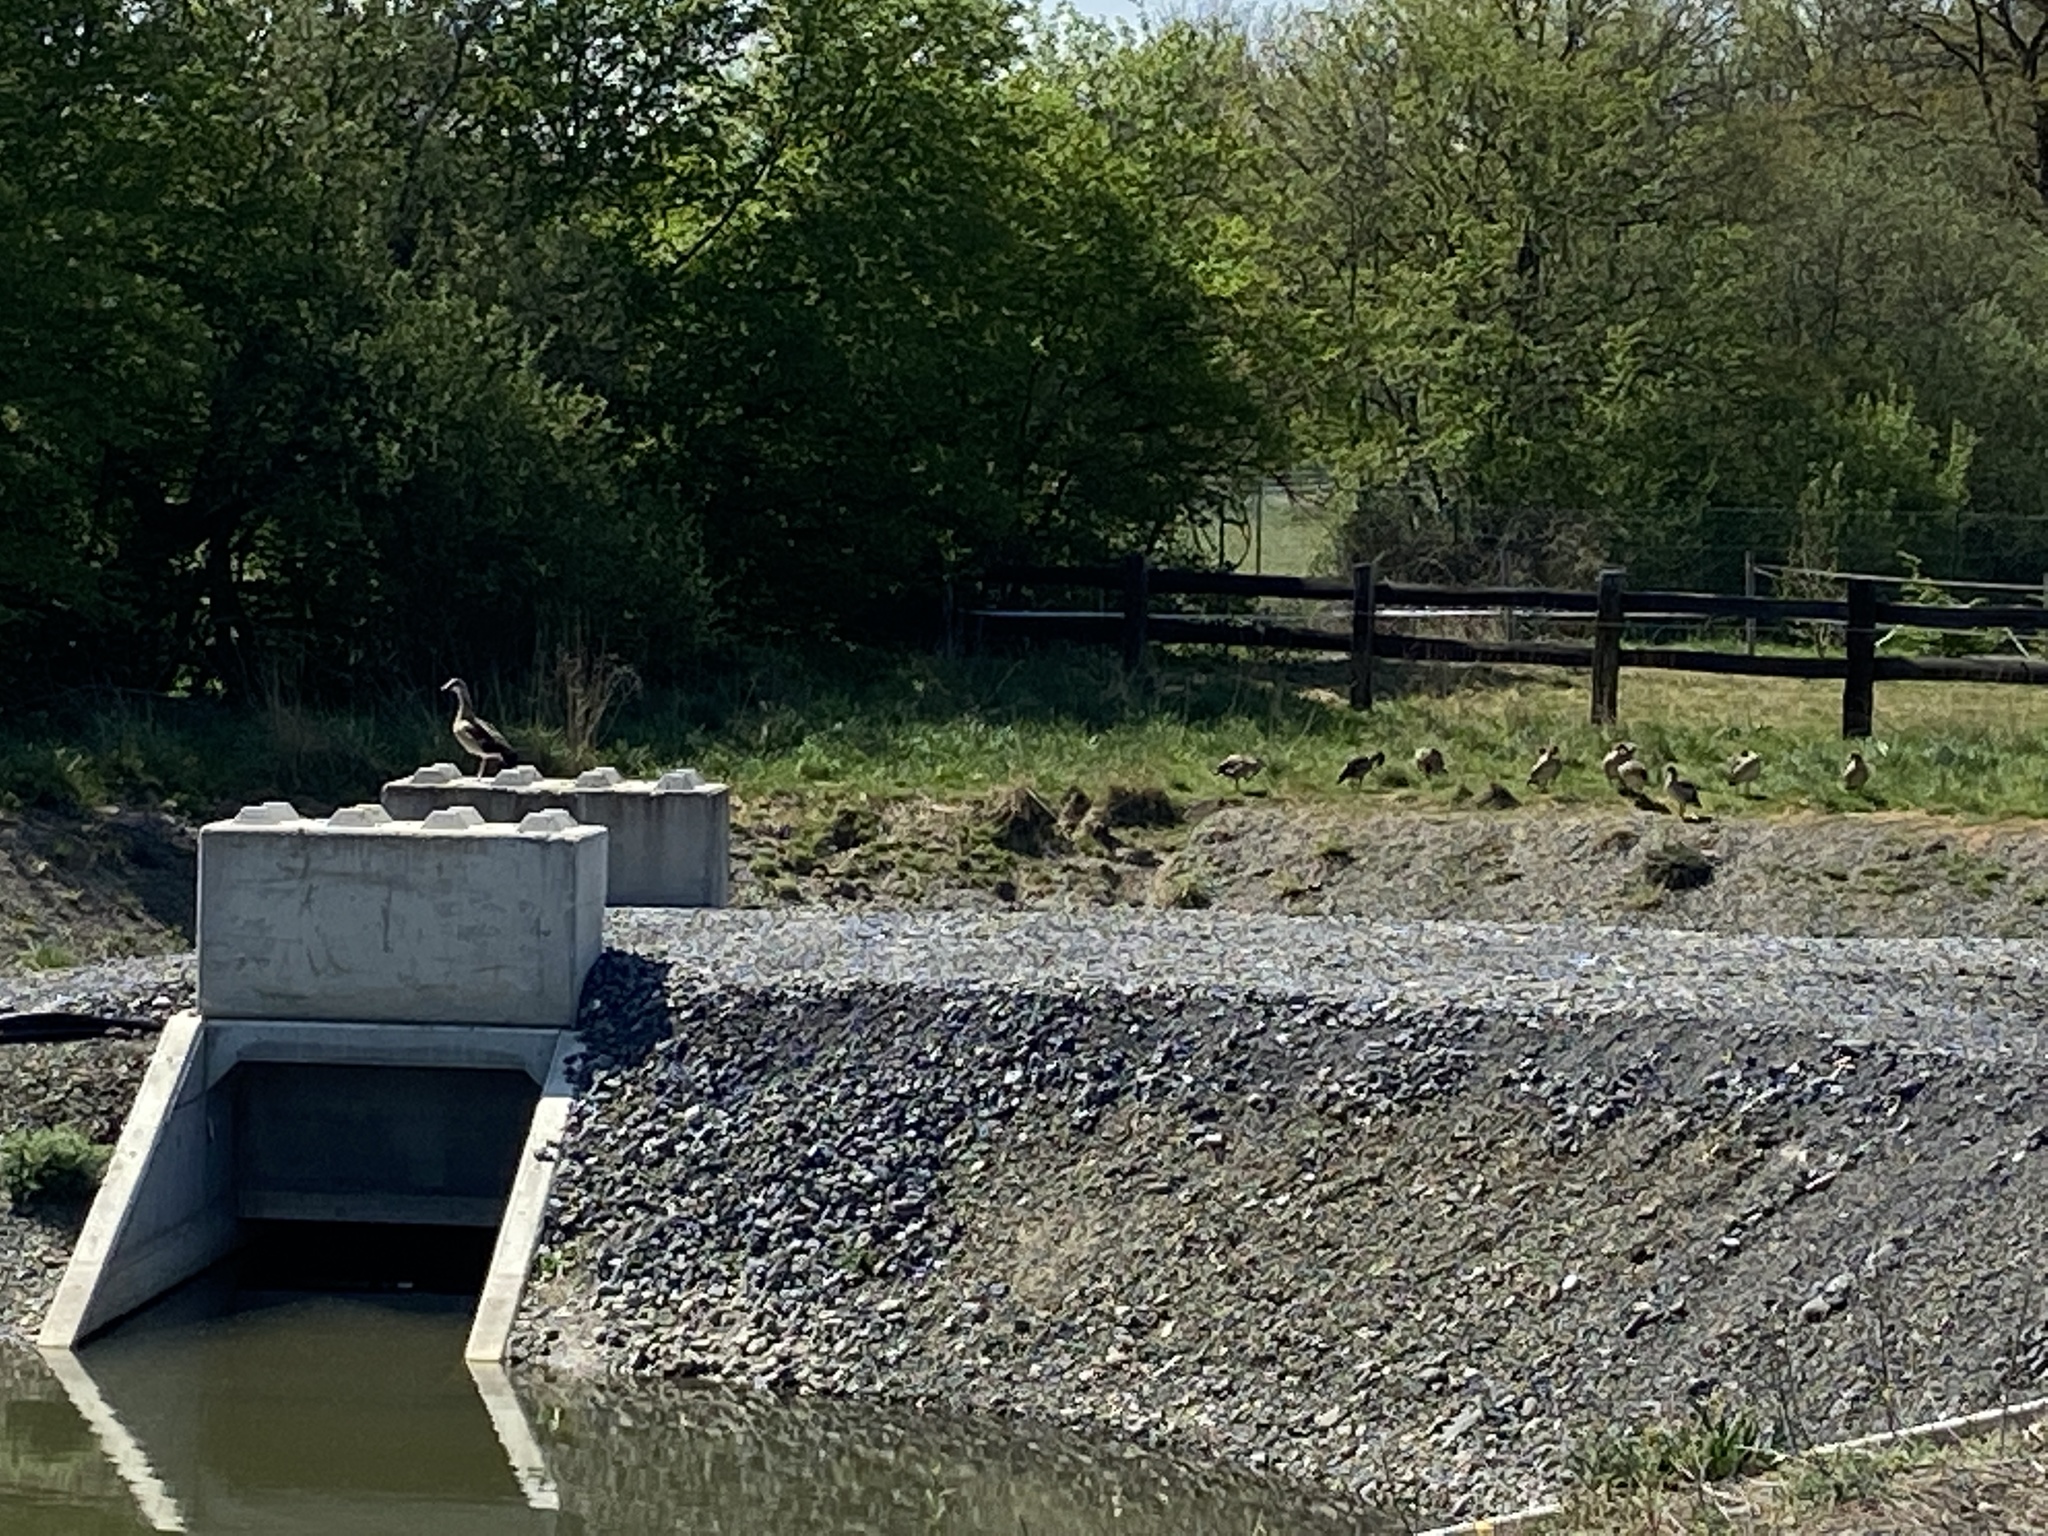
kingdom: Animalia
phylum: Chordata
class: Aves
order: Anseriformes
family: Anatidae
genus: Alopochen
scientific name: Alopochen aegyptiaca
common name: Egyptian goose
